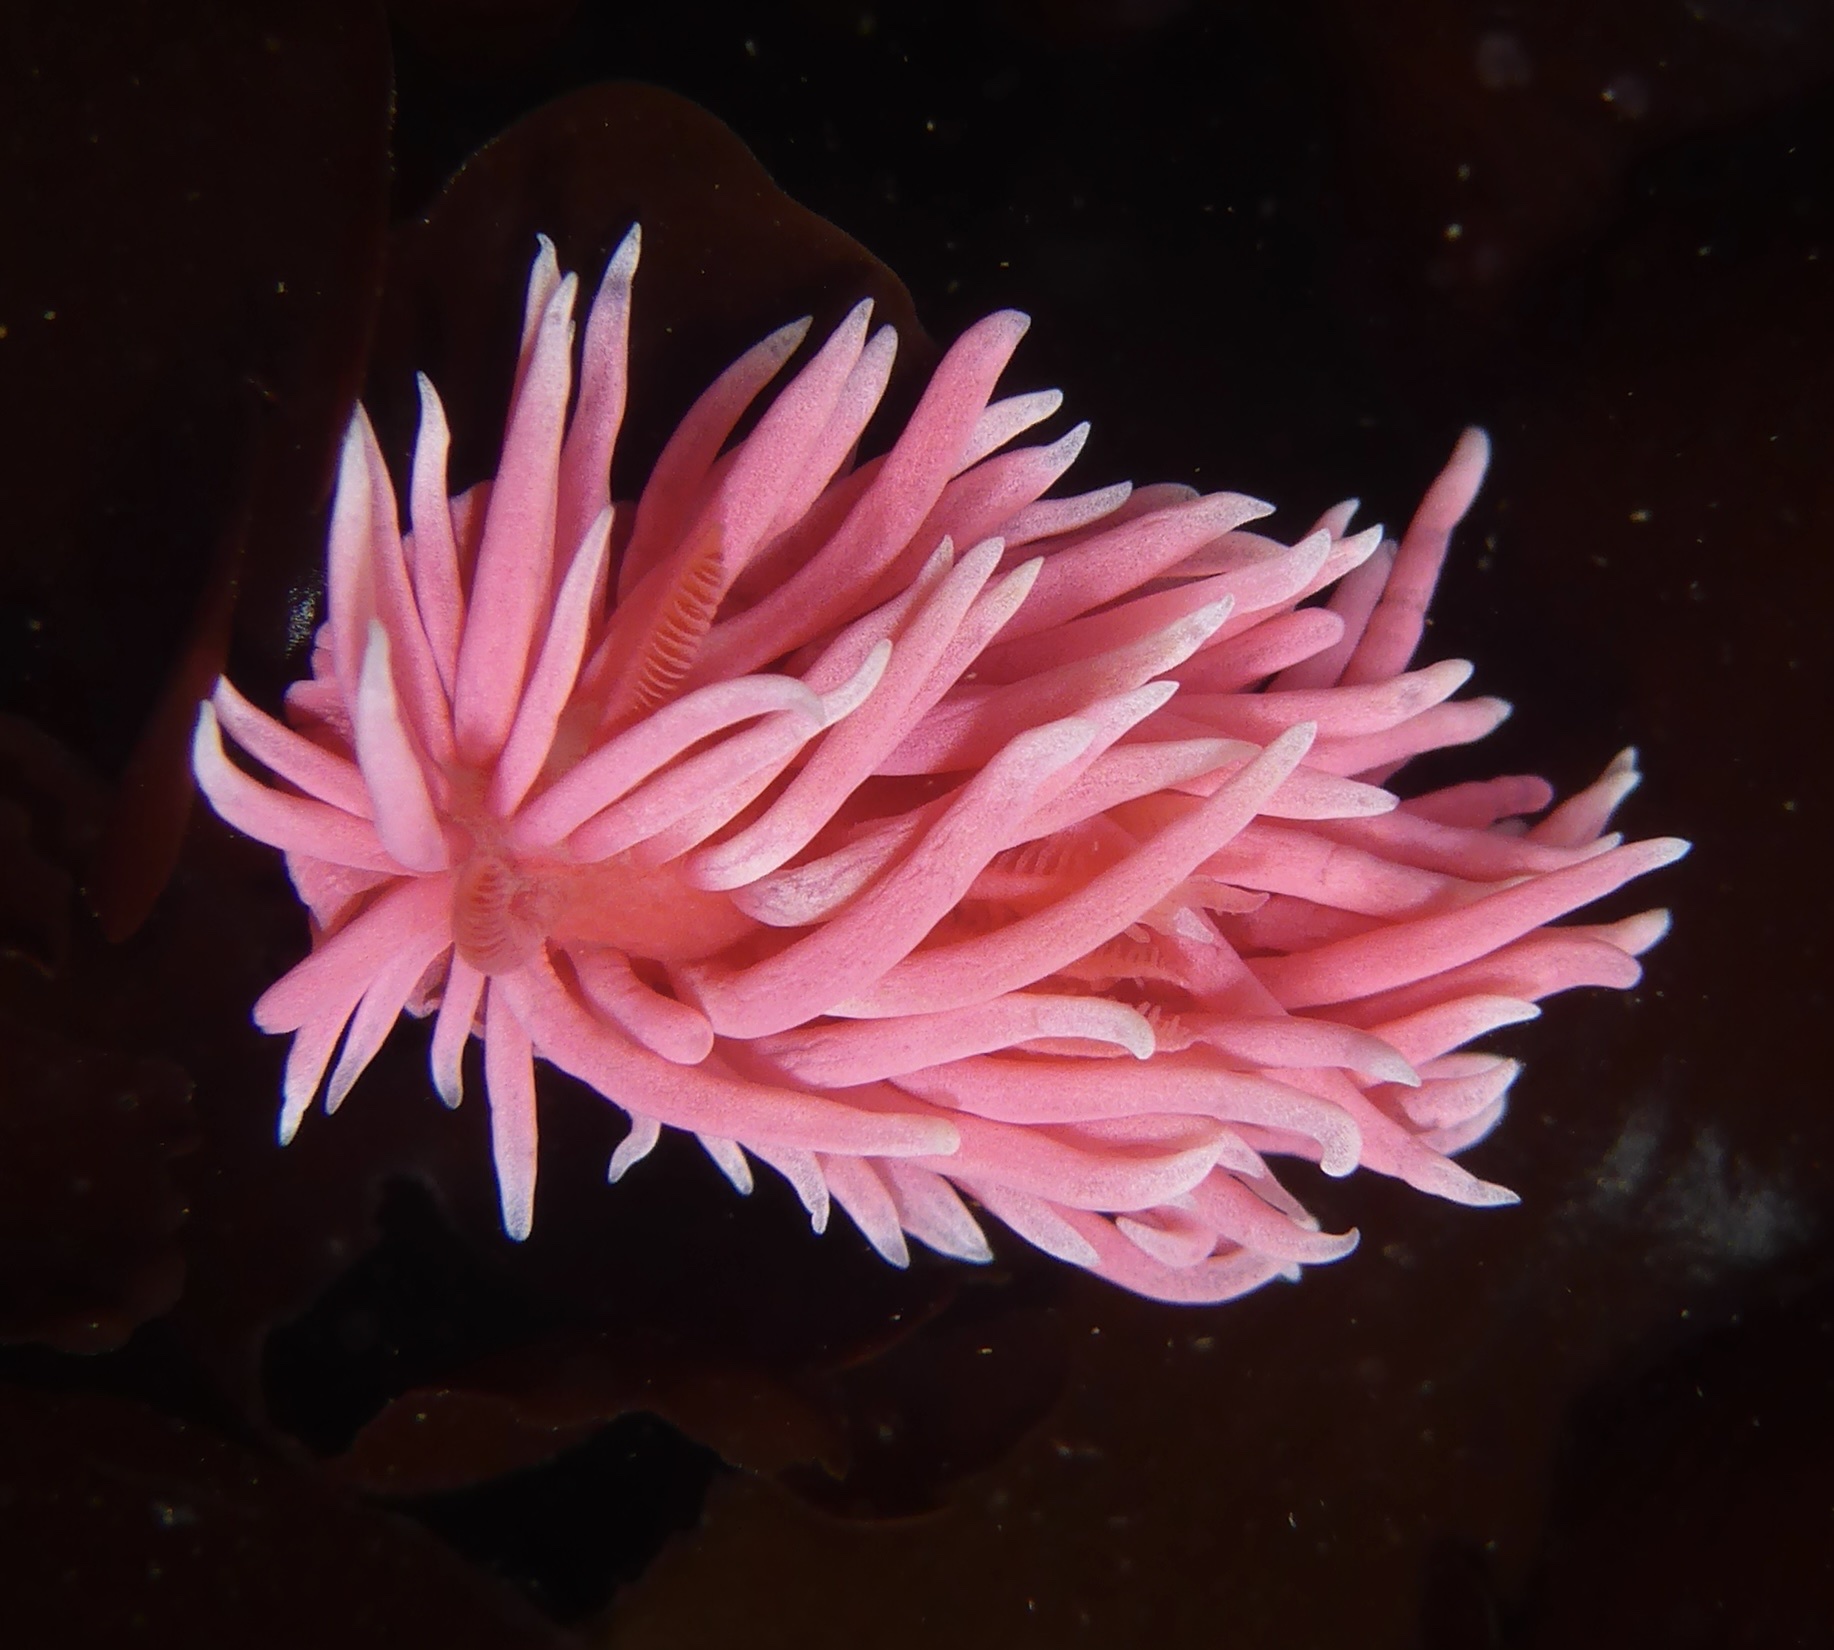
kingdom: Animalia
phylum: Mollusca
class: Gastropoda
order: Nudibranchia
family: Goniodorididae
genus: Okenia
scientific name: Okenia
